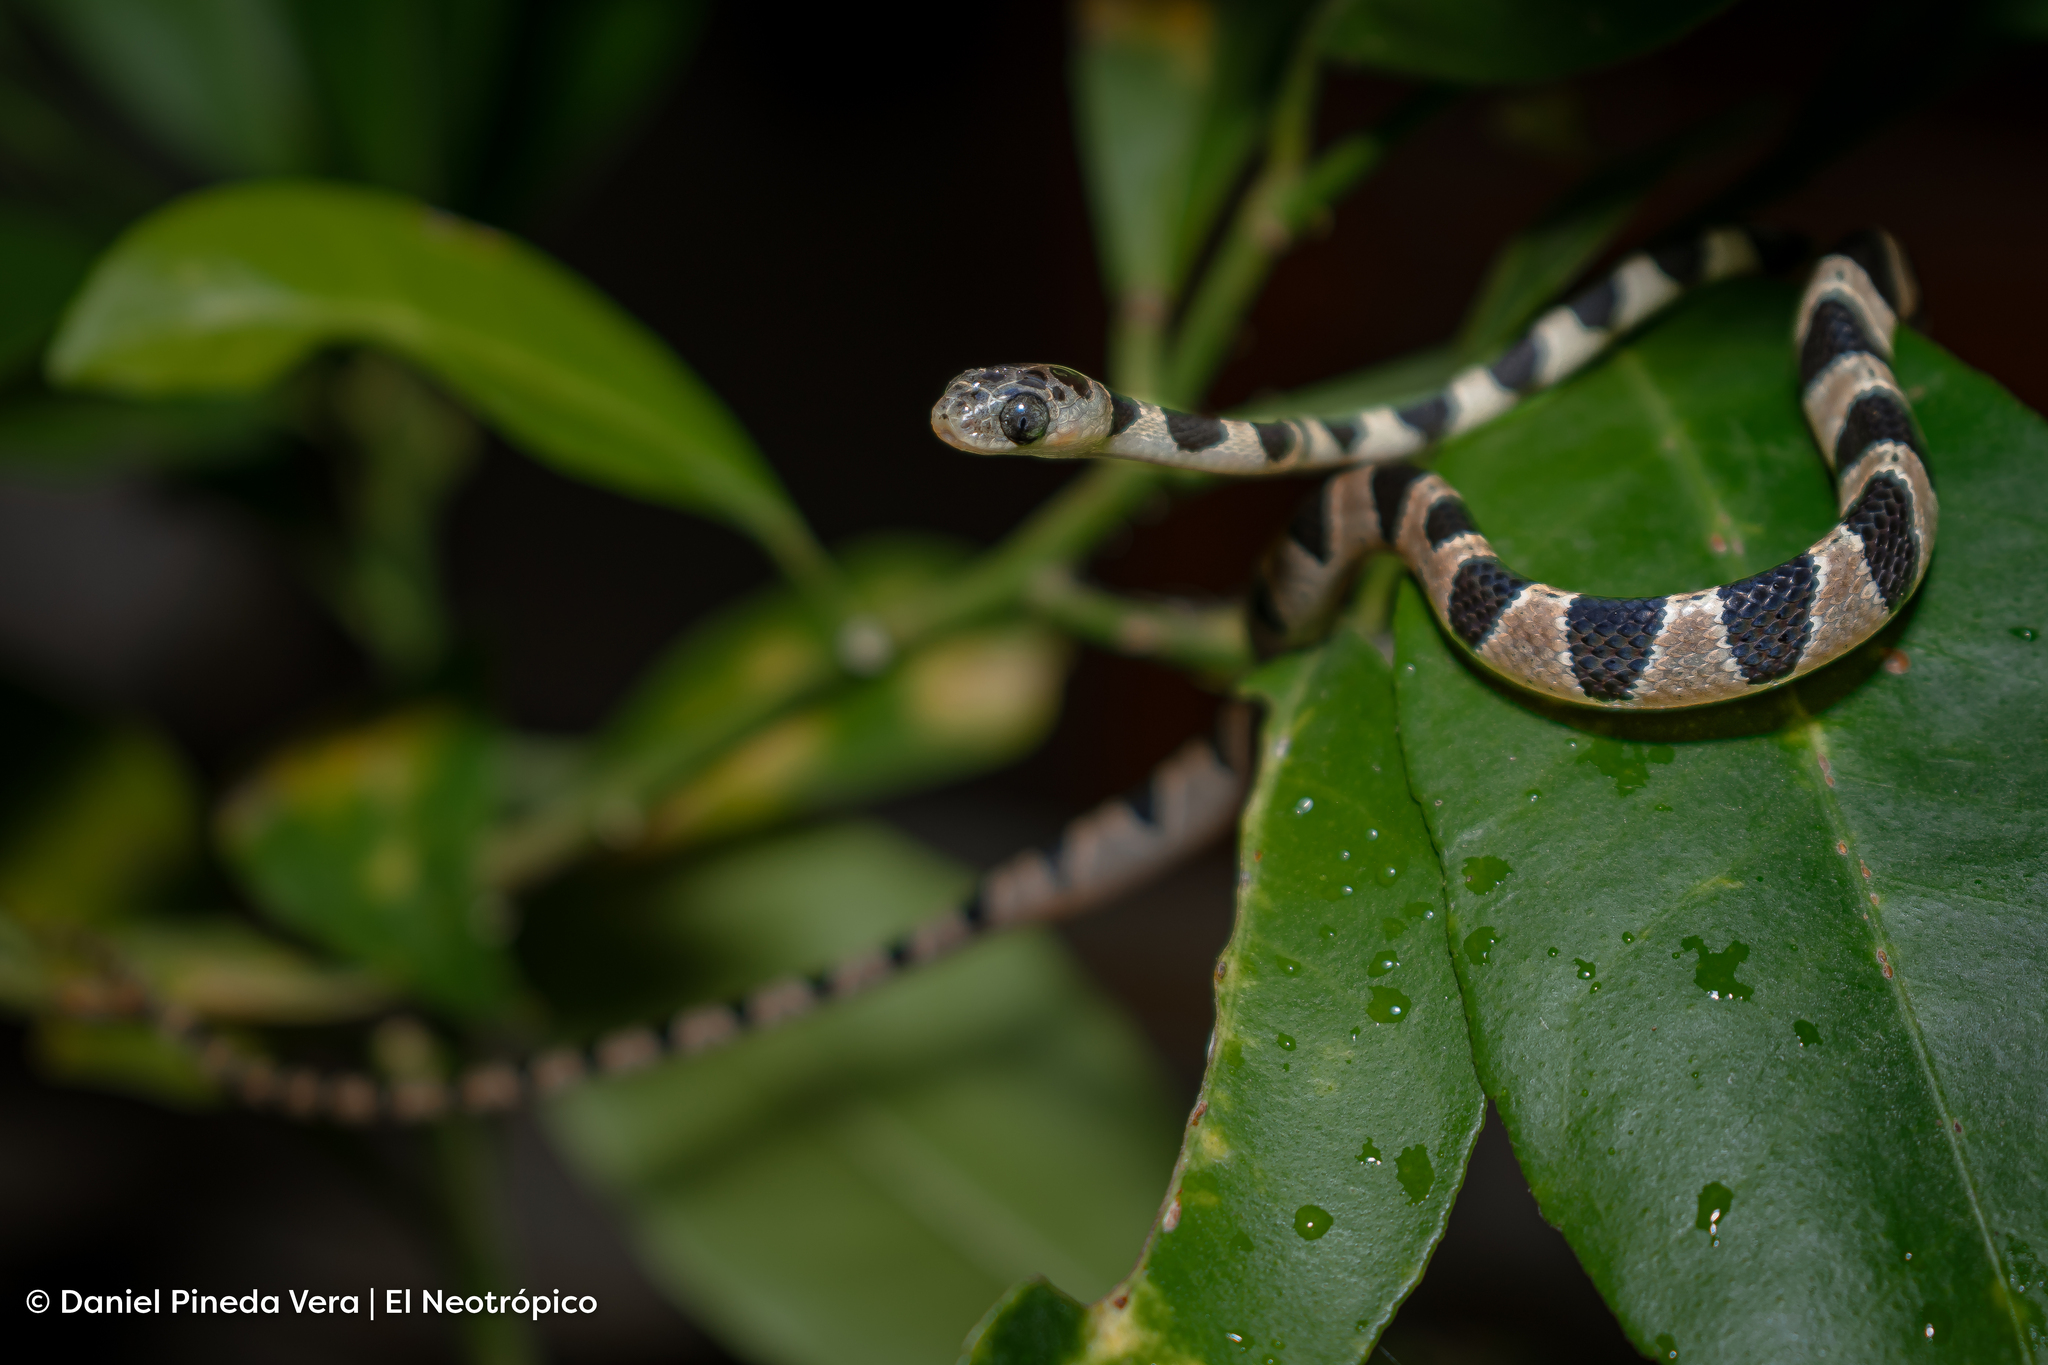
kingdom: Animalia
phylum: Chordata
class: Squamata
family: Colubridae
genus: Imantodes
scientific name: Imantodes gemmistratus
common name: Central american tree snake
